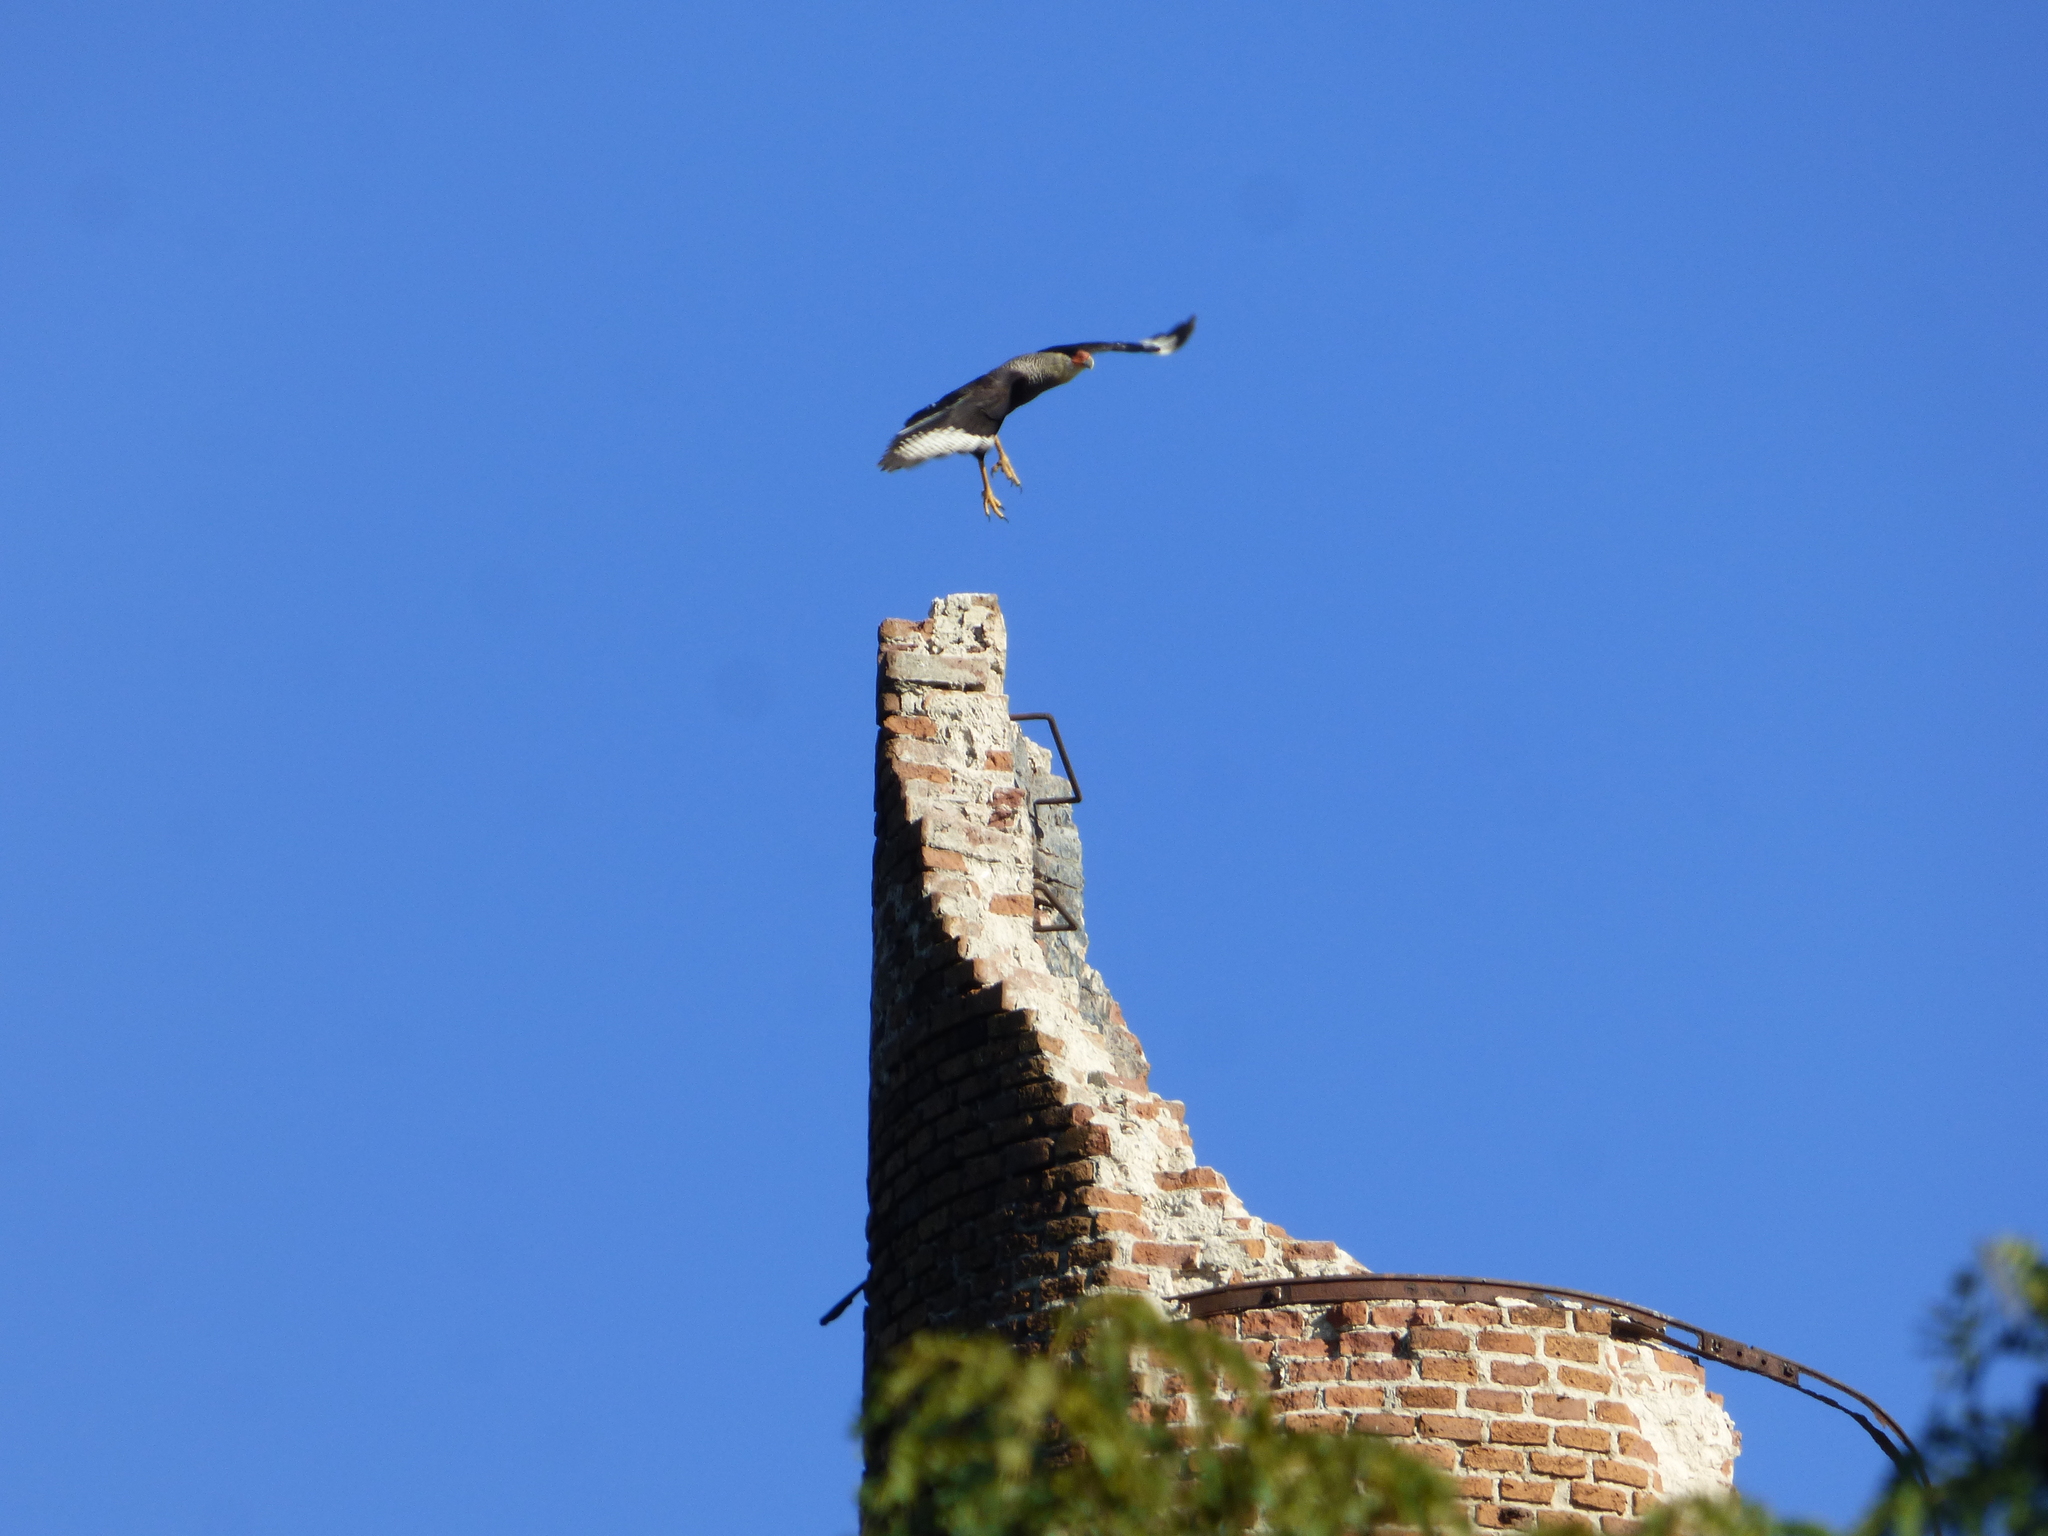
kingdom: Animalia
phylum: Chordata
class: Aves
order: Falconiformes
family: Falconidae
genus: Caracara
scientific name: Caracara plancus
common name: Southern caracara
